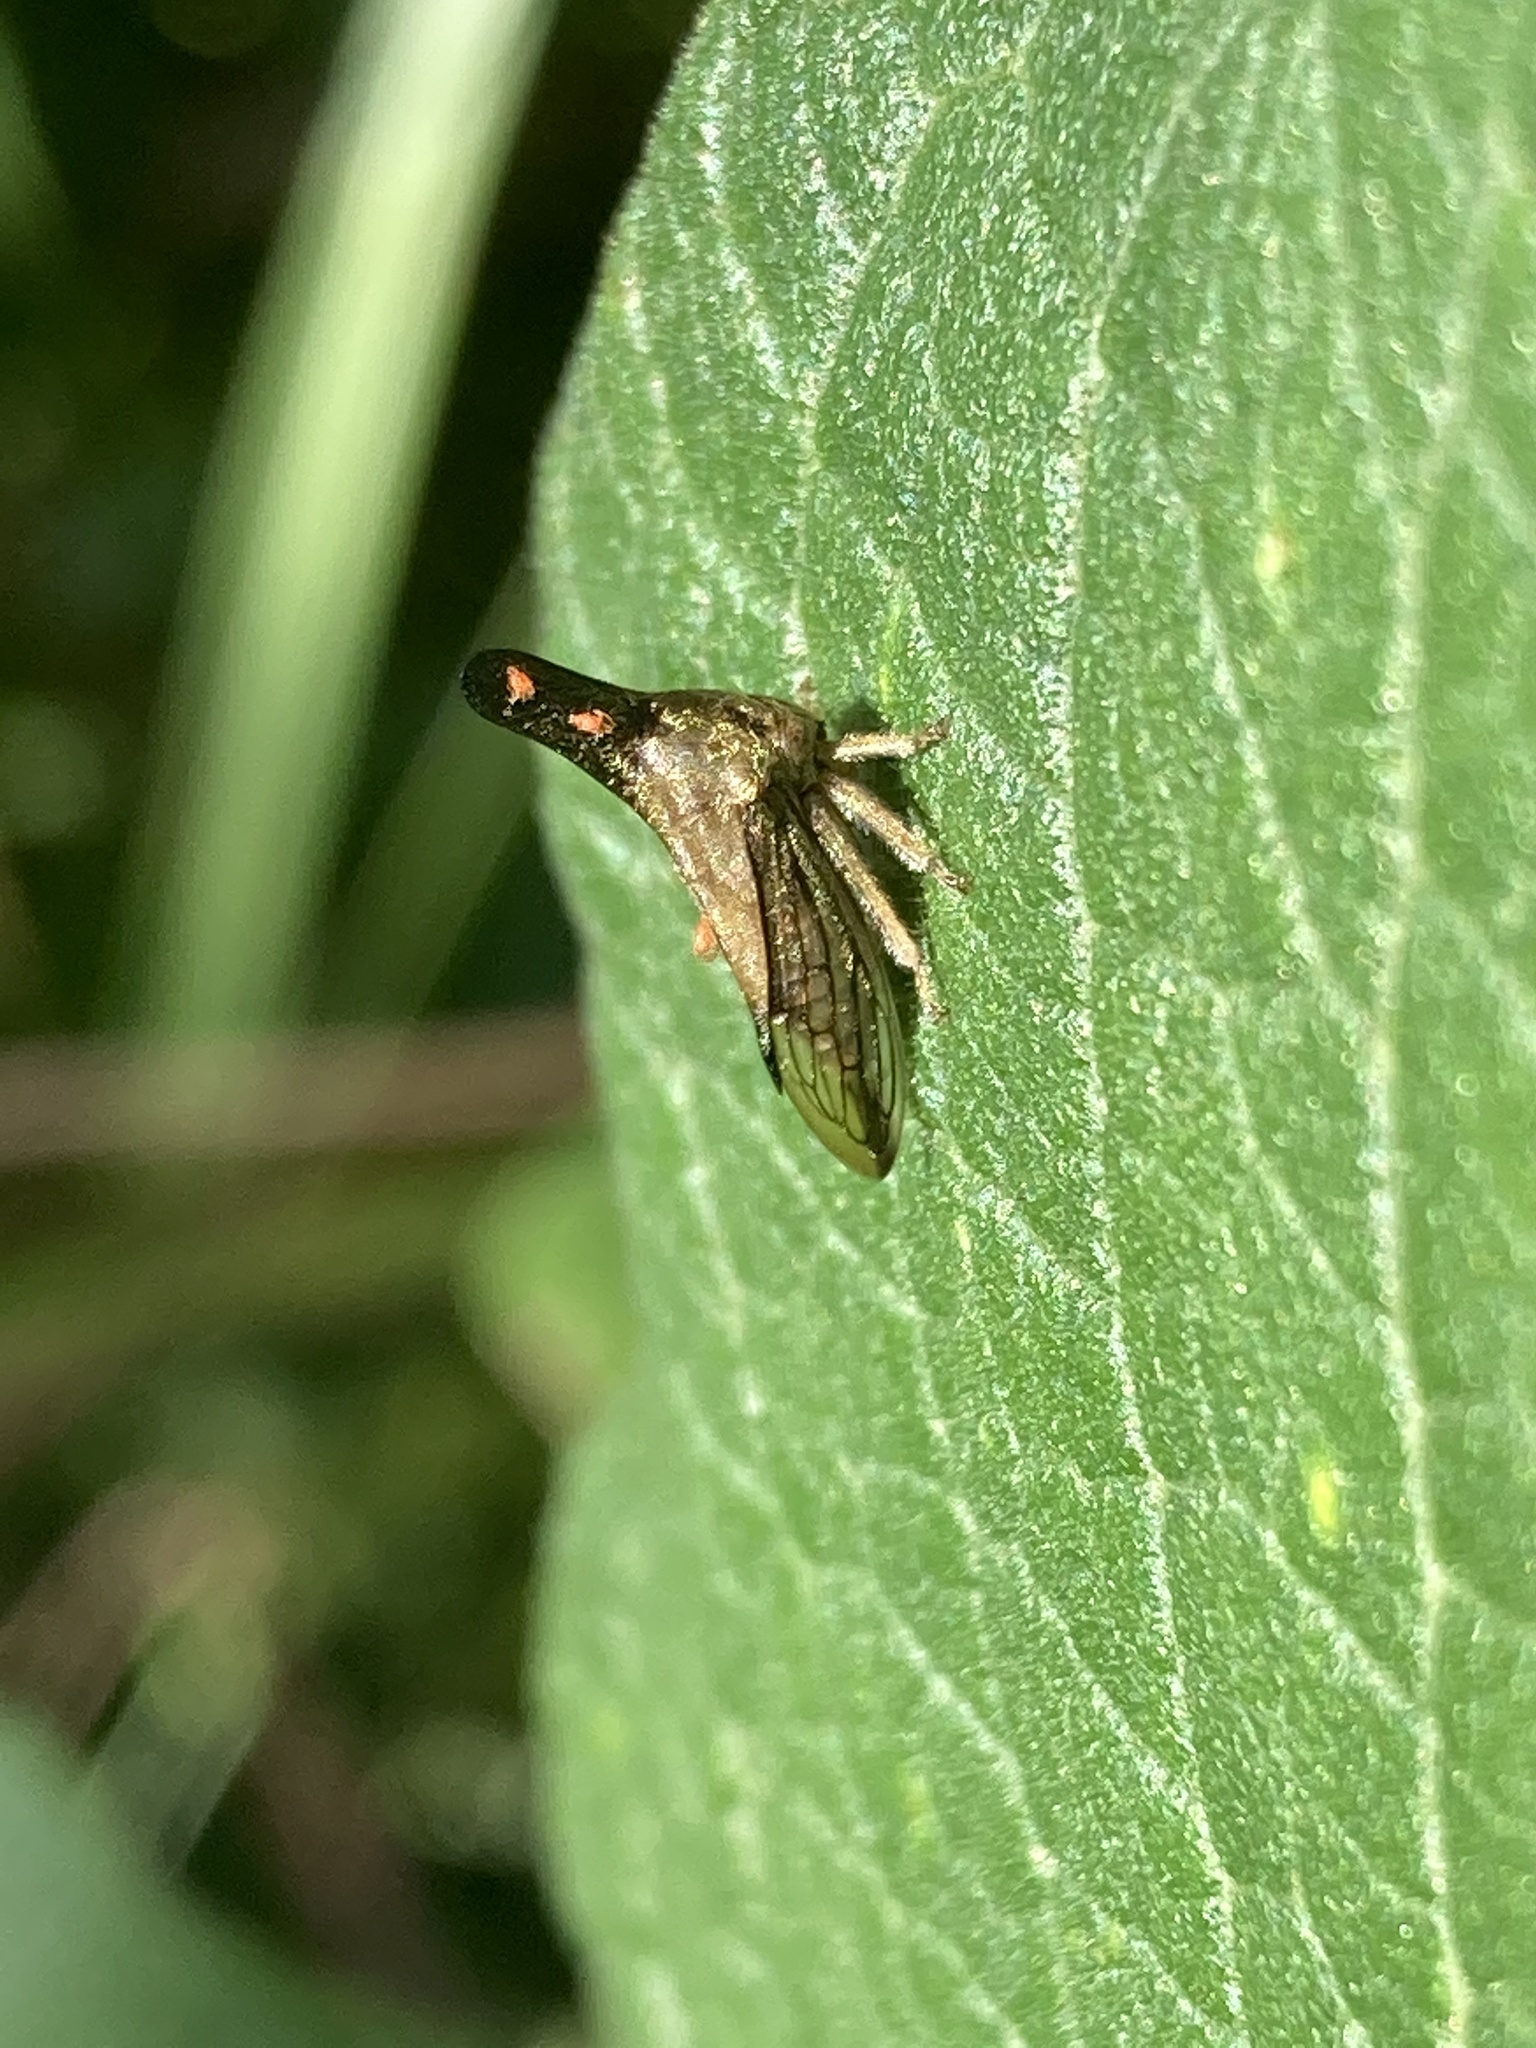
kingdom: Animalia
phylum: Arthropoda
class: Insecta
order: Hemiptera
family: Membracidae
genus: Aconophora
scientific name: Aconophora mexicana
